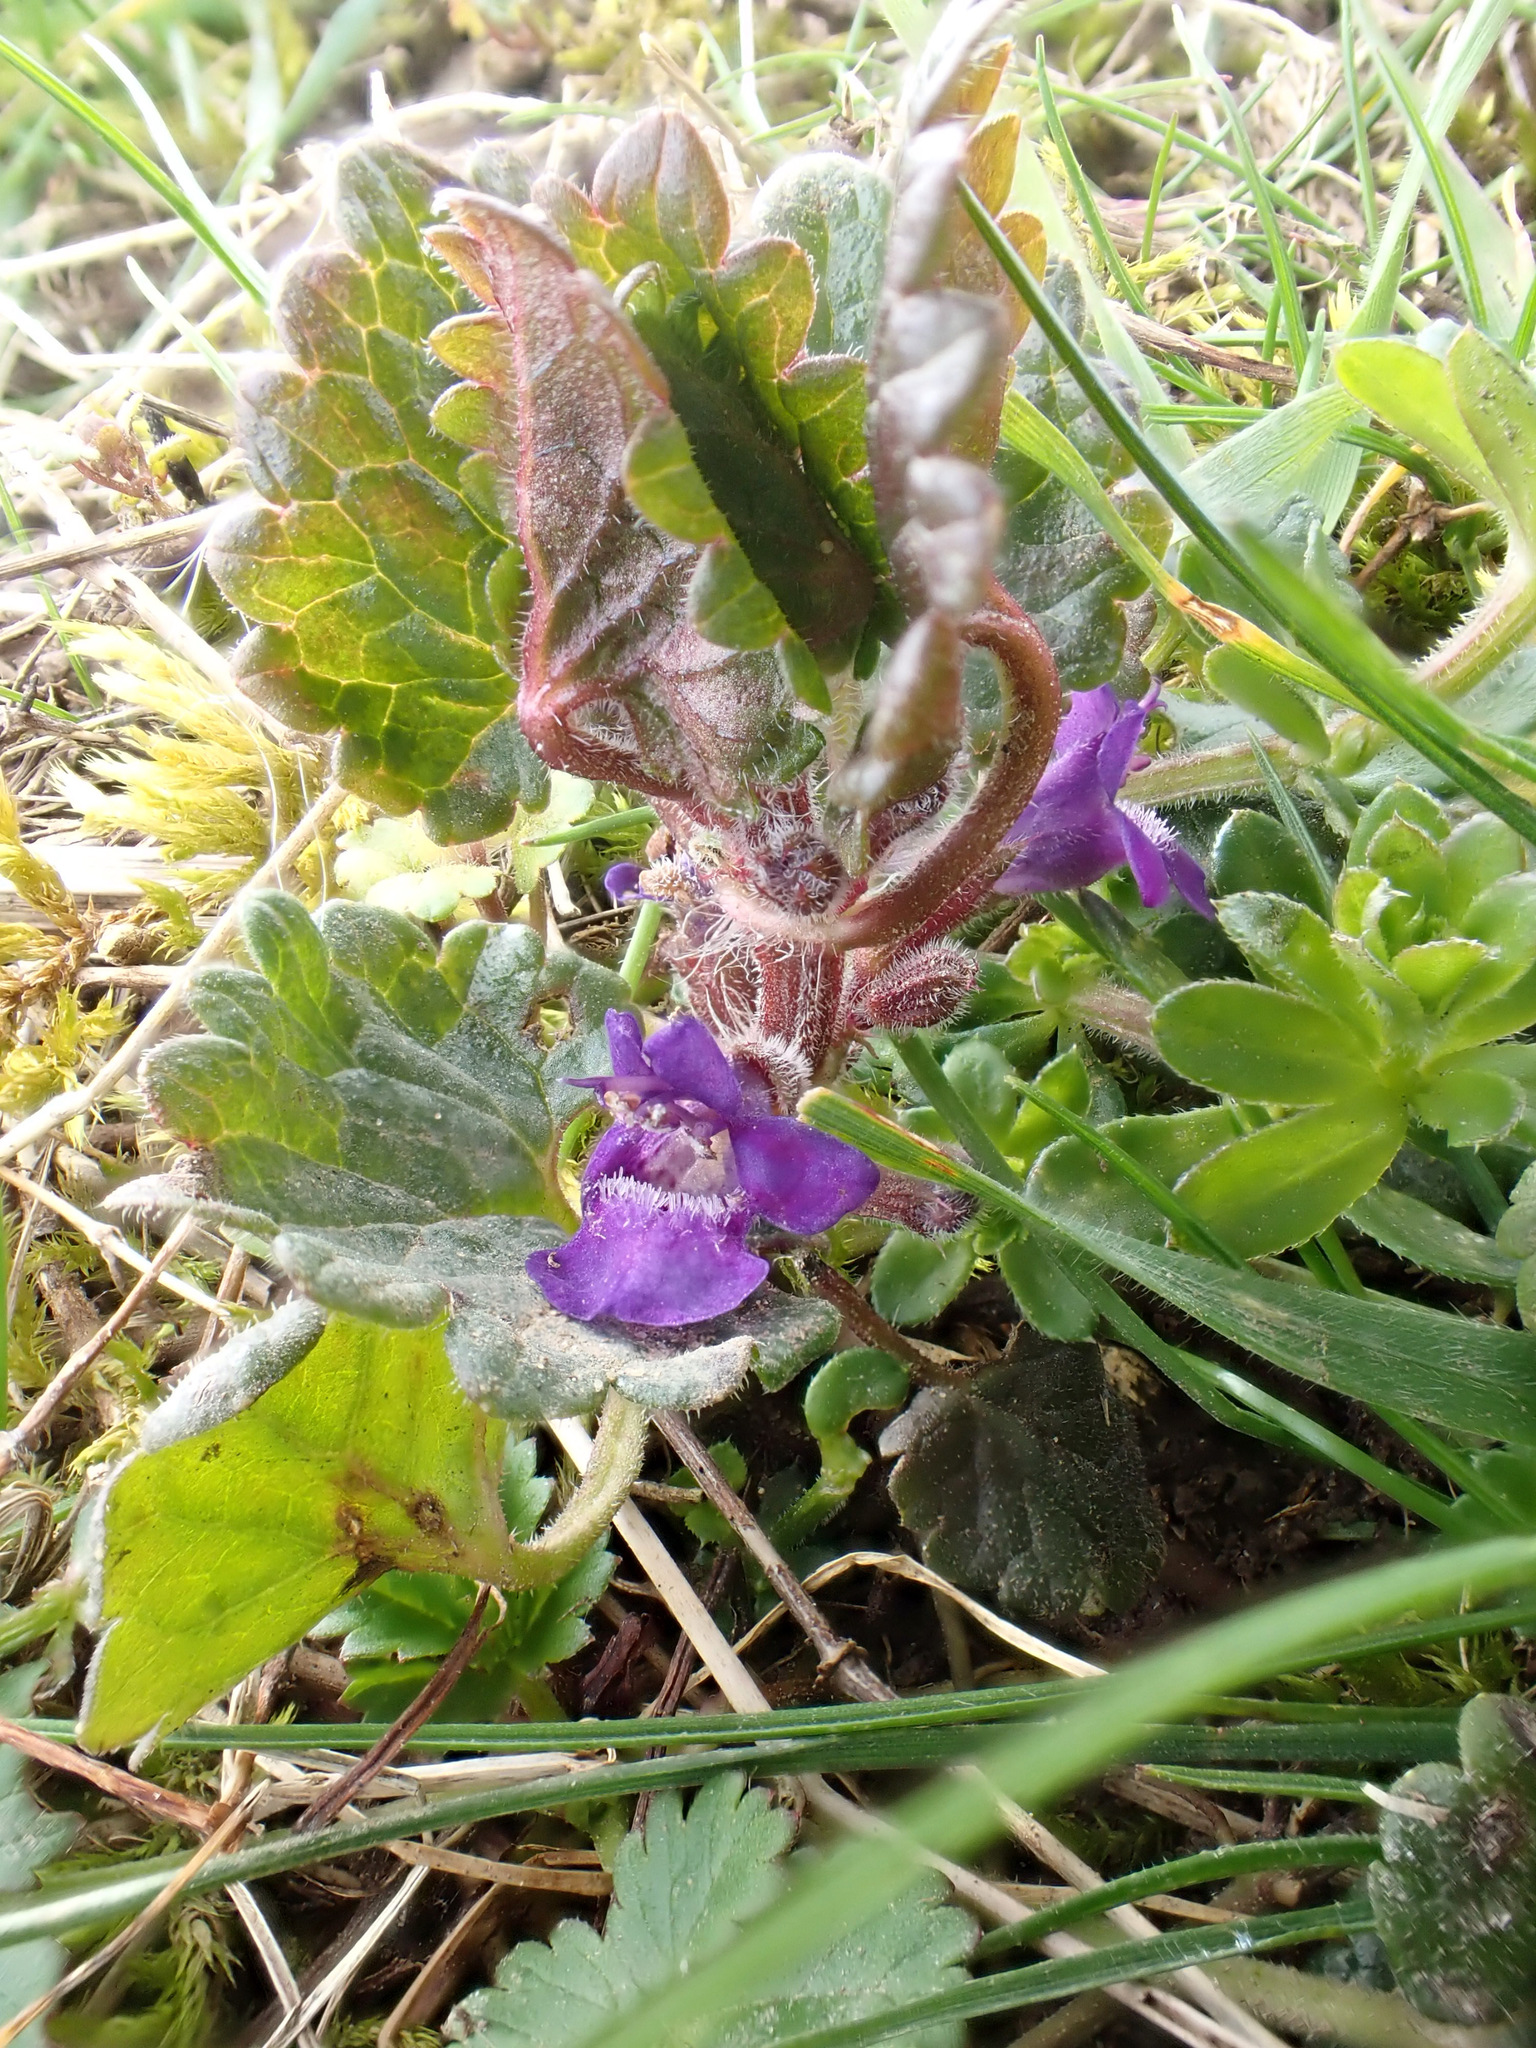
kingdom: Plantae
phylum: Tracheophyta
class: Magnoliopsida
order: Lamiales
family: Lamiaceae
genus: Glechoma
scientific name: Glechoma hederacea
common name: Ground ivy
